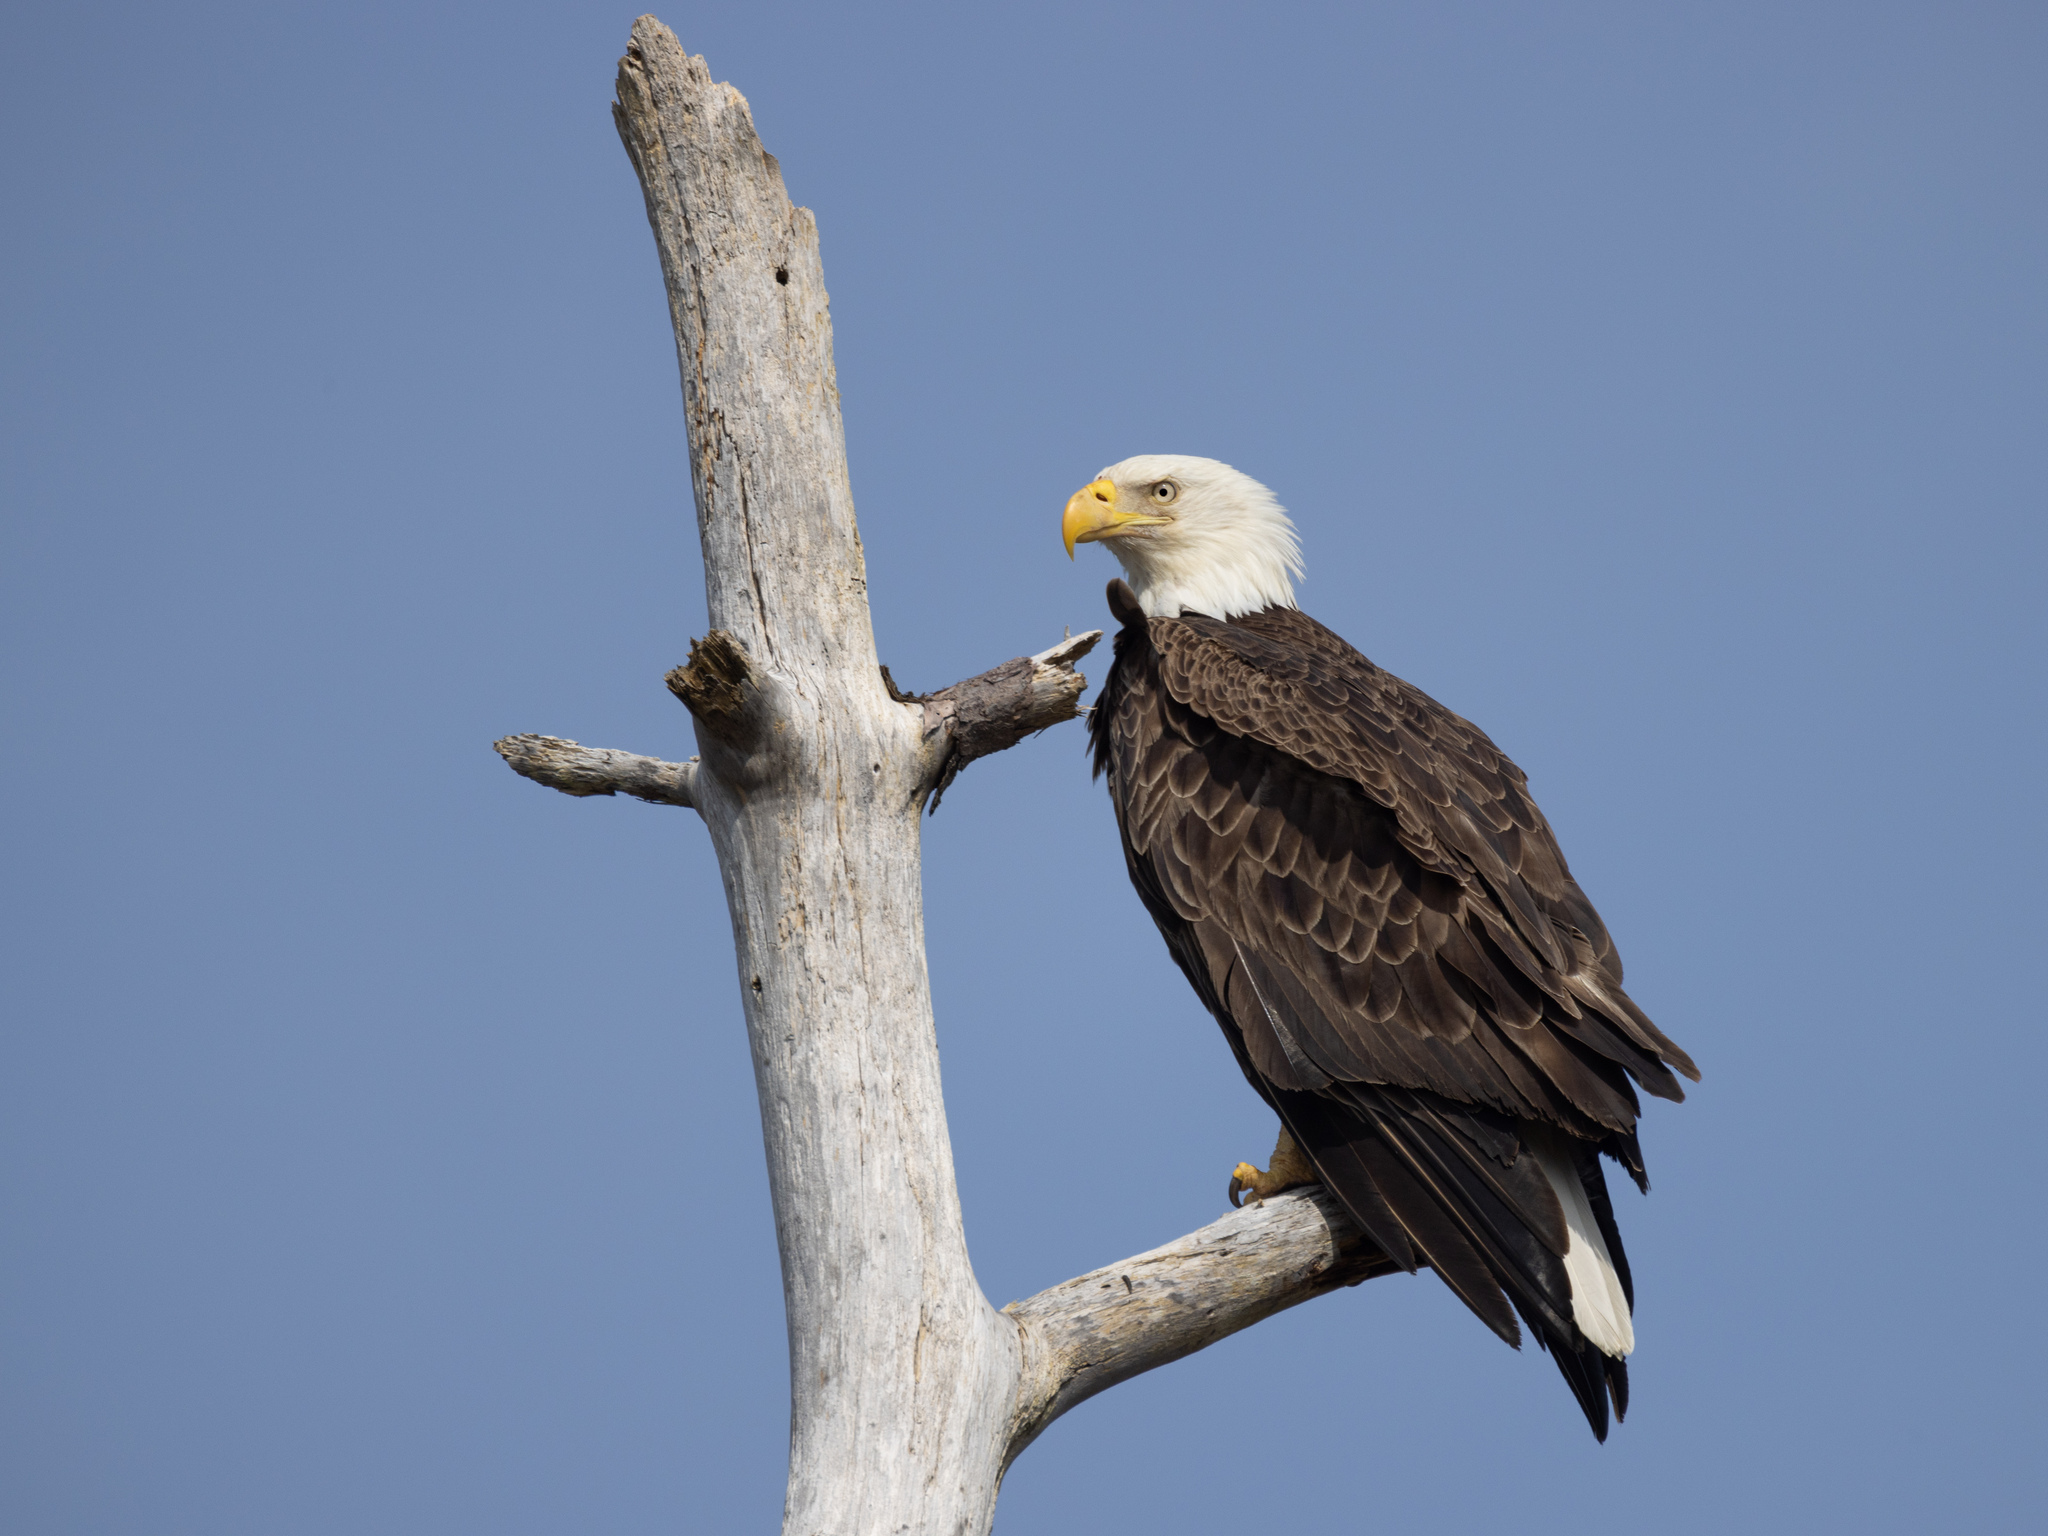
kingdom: Animalia
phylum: Chordata
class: Aves
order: Accipitriformes
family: Accipitridae
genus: Haliaeetus
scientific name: Haliaeetus leucocephalus
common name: Bald eagle
